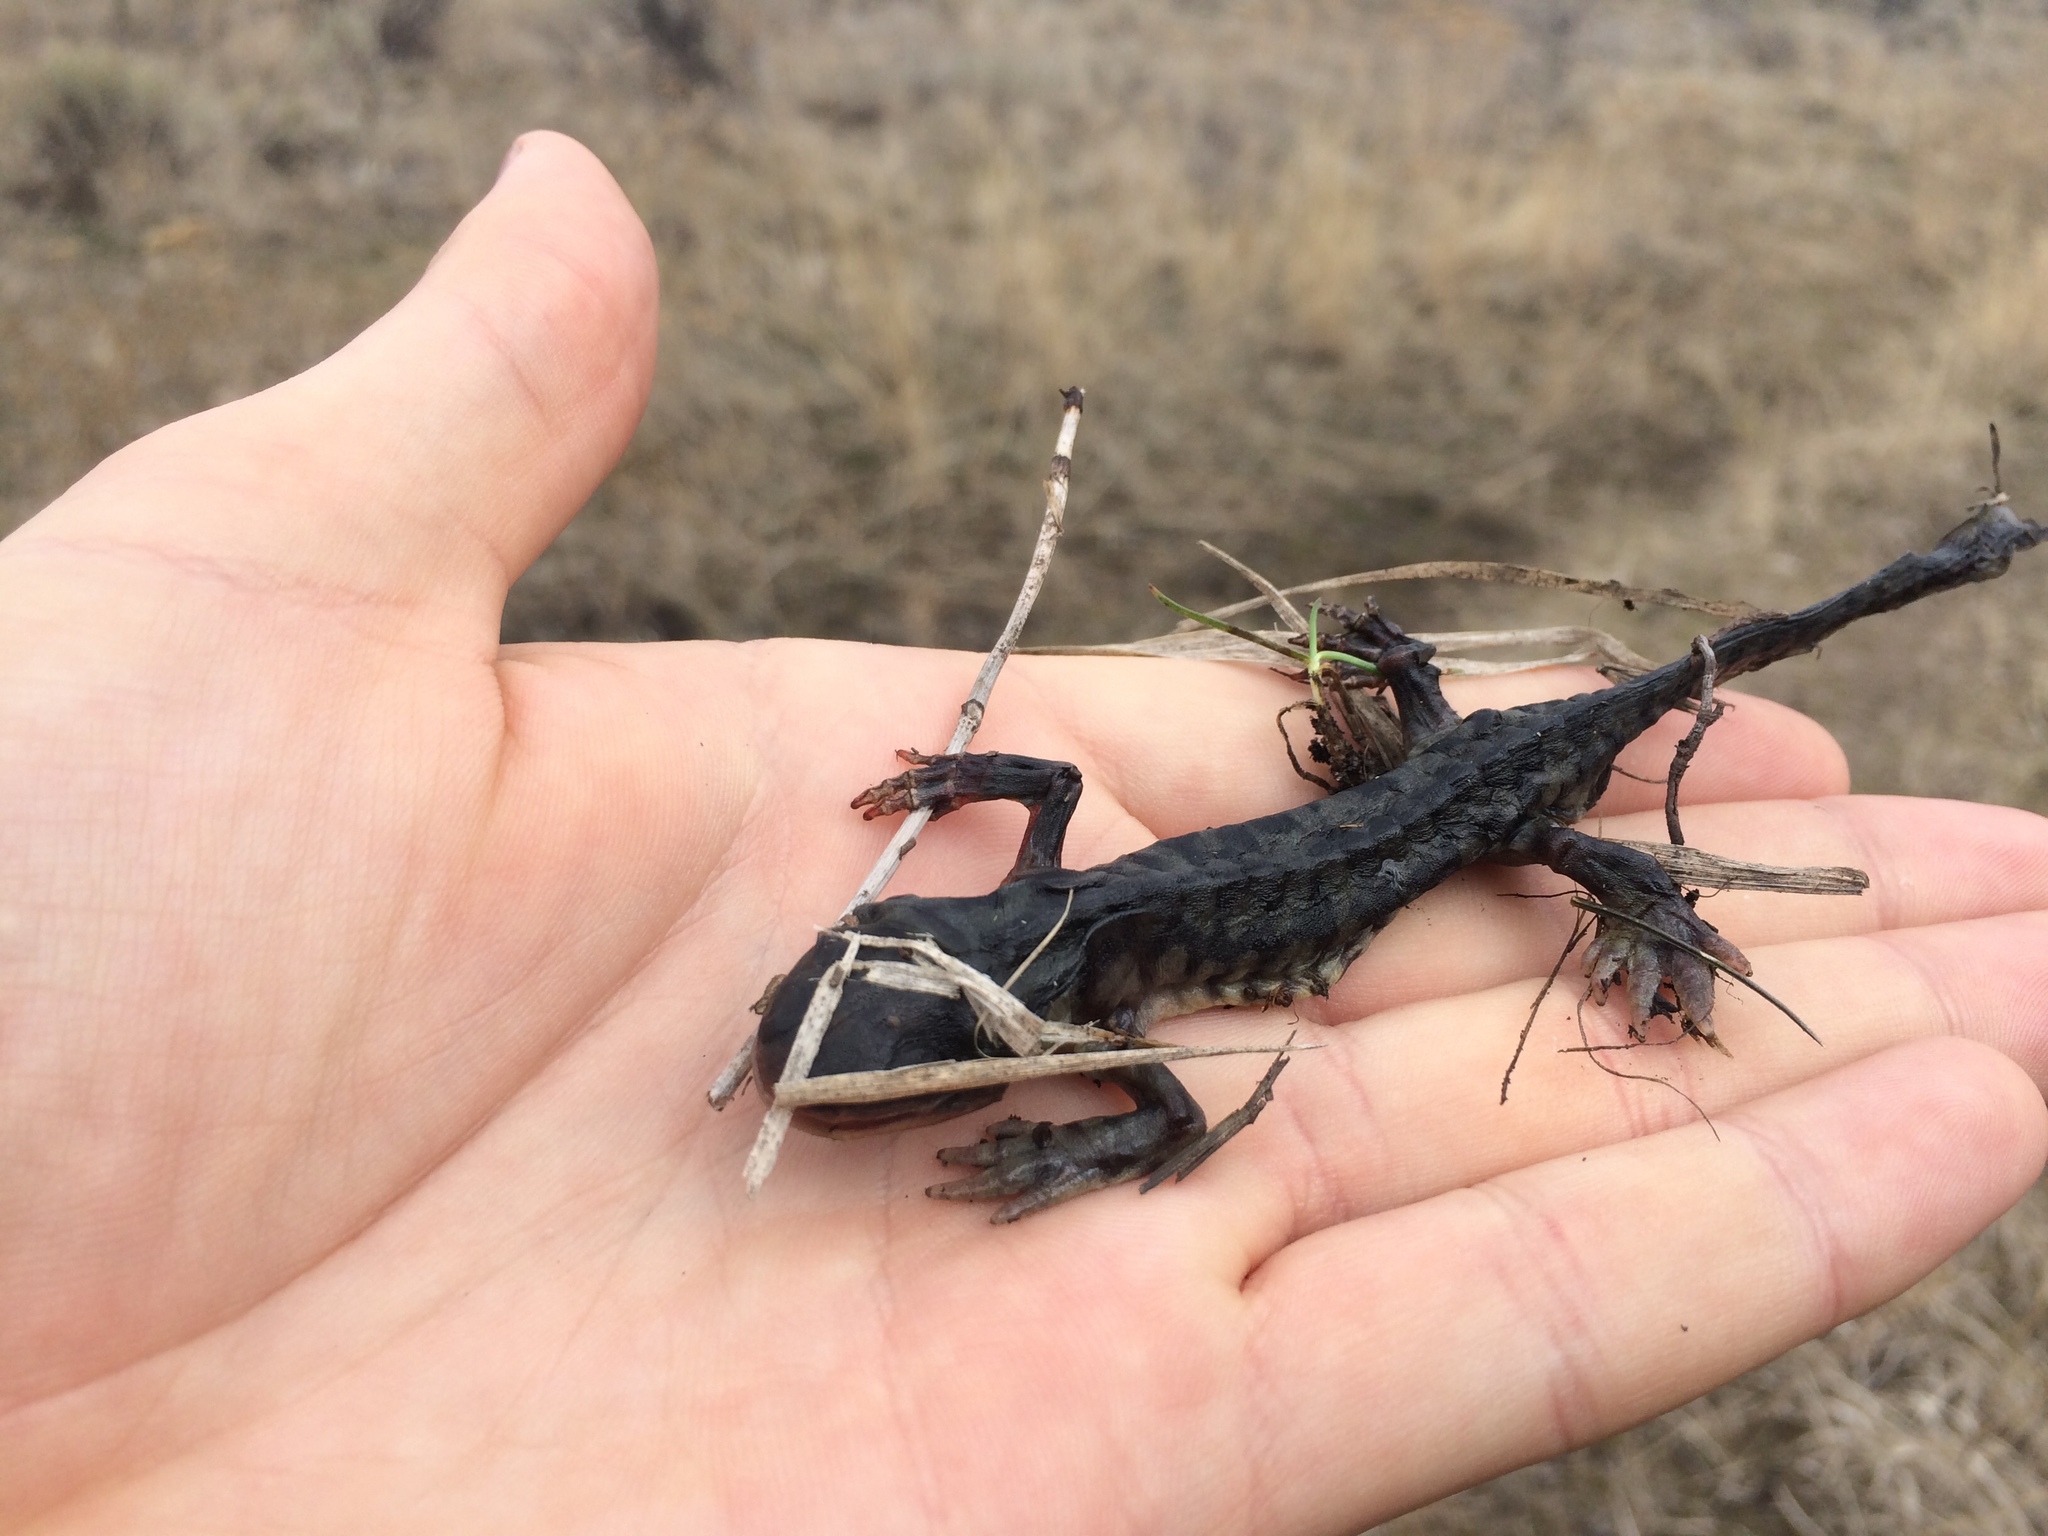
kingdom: Animalia
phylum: Chordata
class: Amphibia
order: Caudata
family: Ambystomatidae
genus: Ambystoma
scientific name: Ambystoma mavortium
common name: Western tiger salamander
